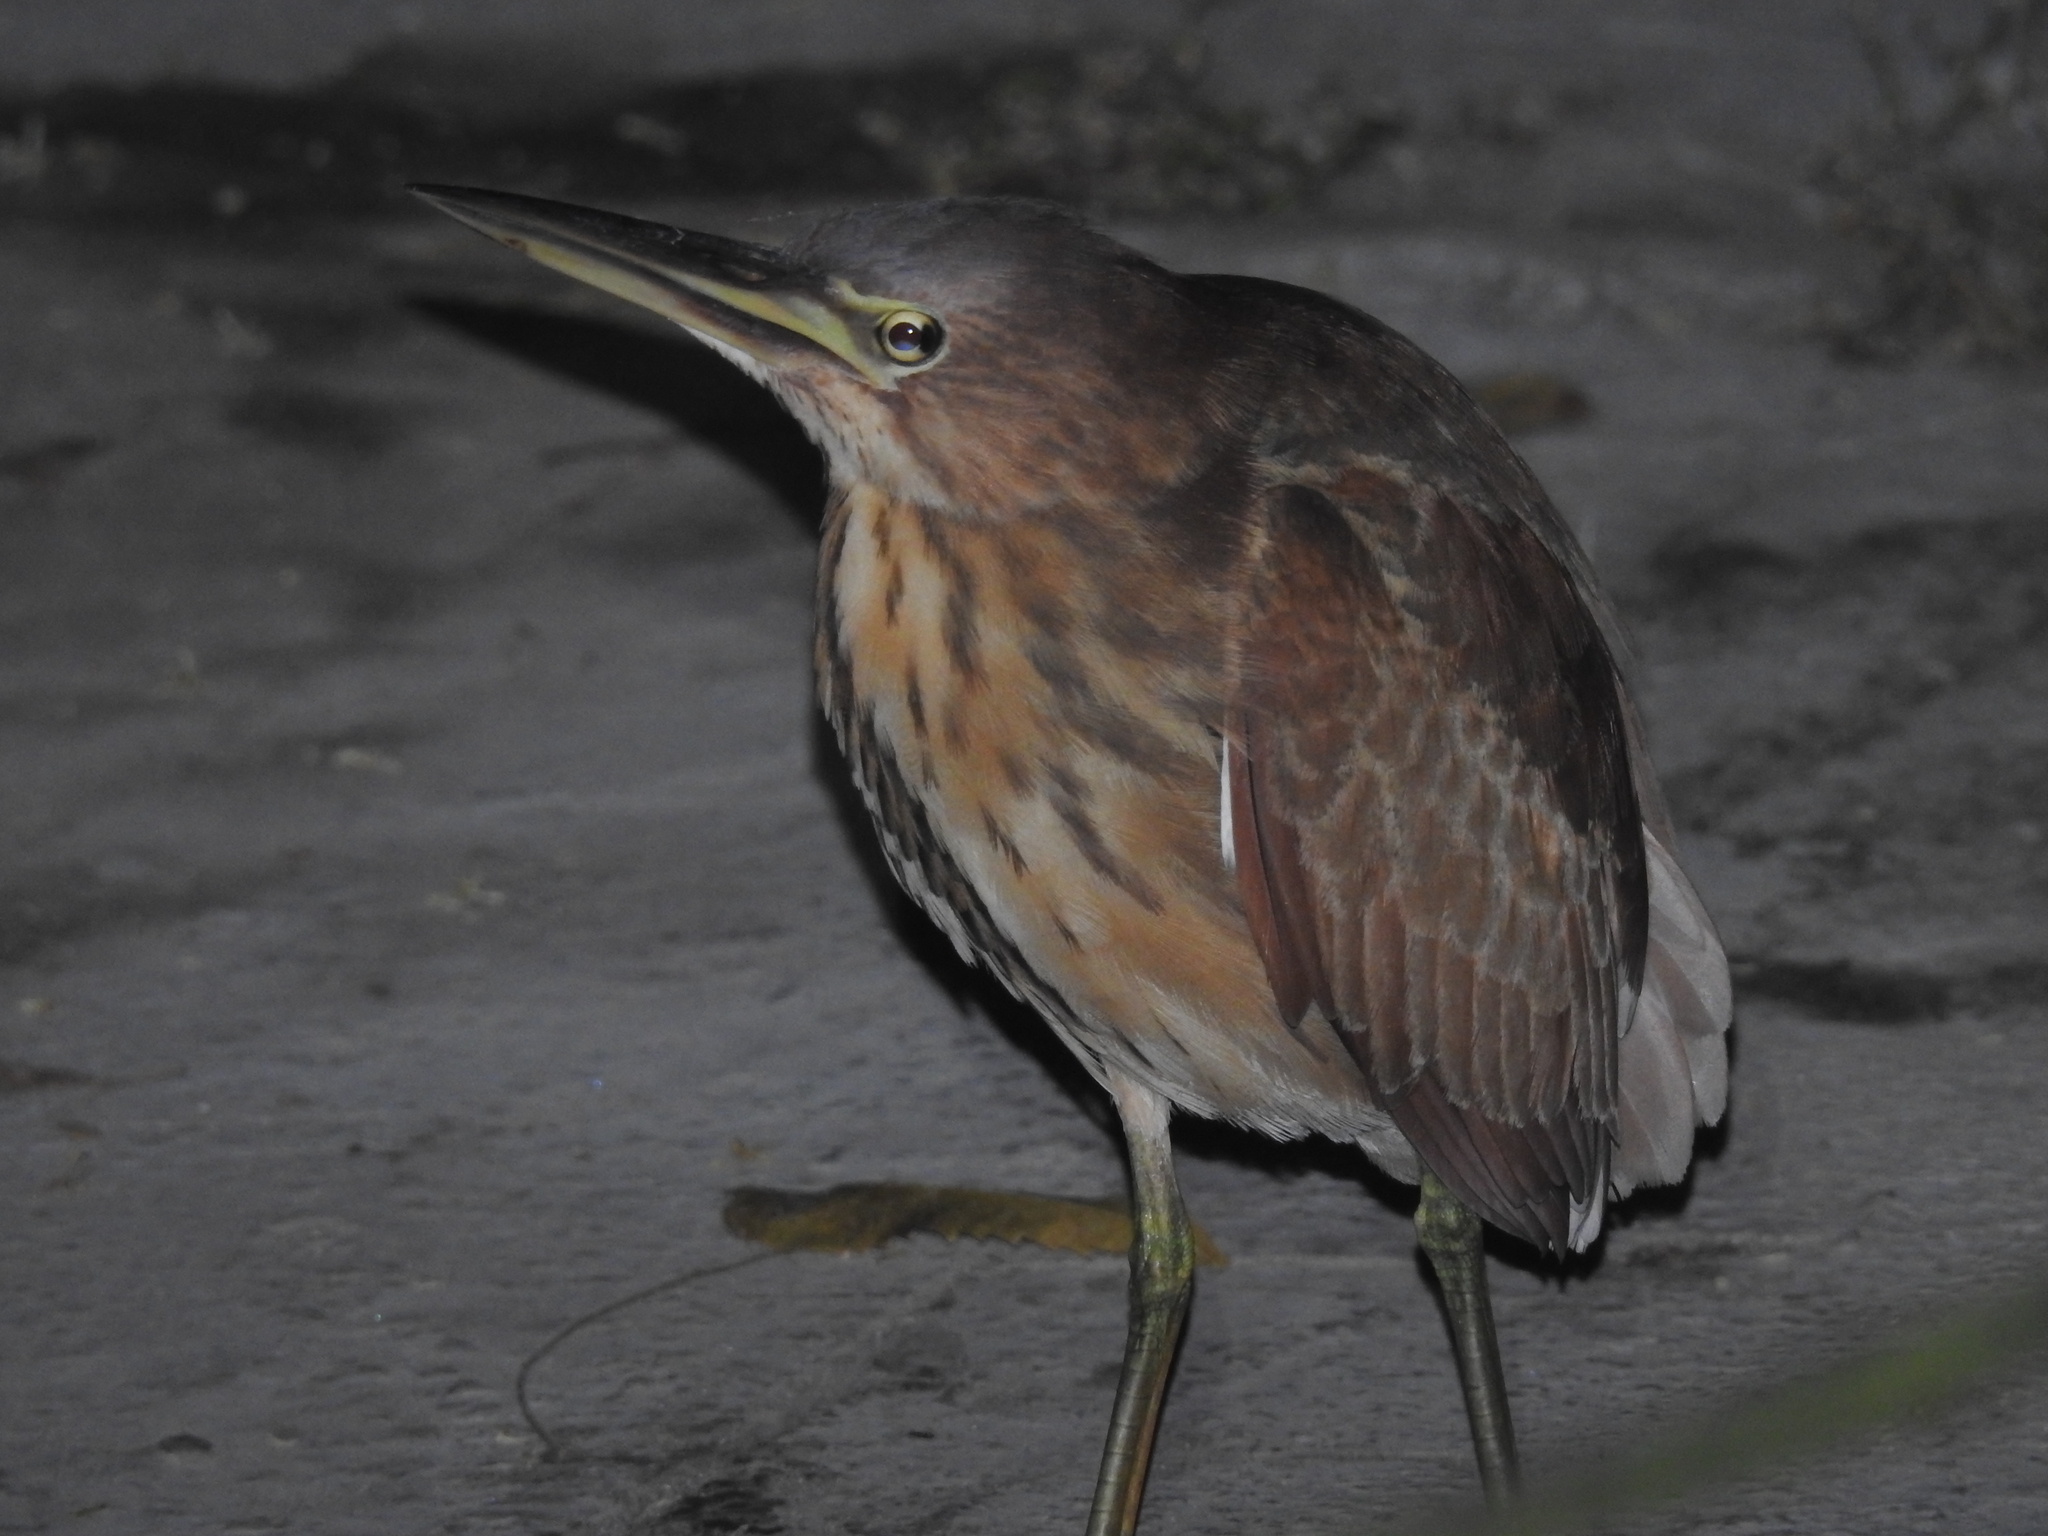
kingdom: Animalia
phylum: Chordata
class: Aves
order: Pelecaniformes
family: Ardeidae
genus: Ixobrychus
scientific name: Ixobrychus cinnamomeus
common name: Cinnamon bittern
